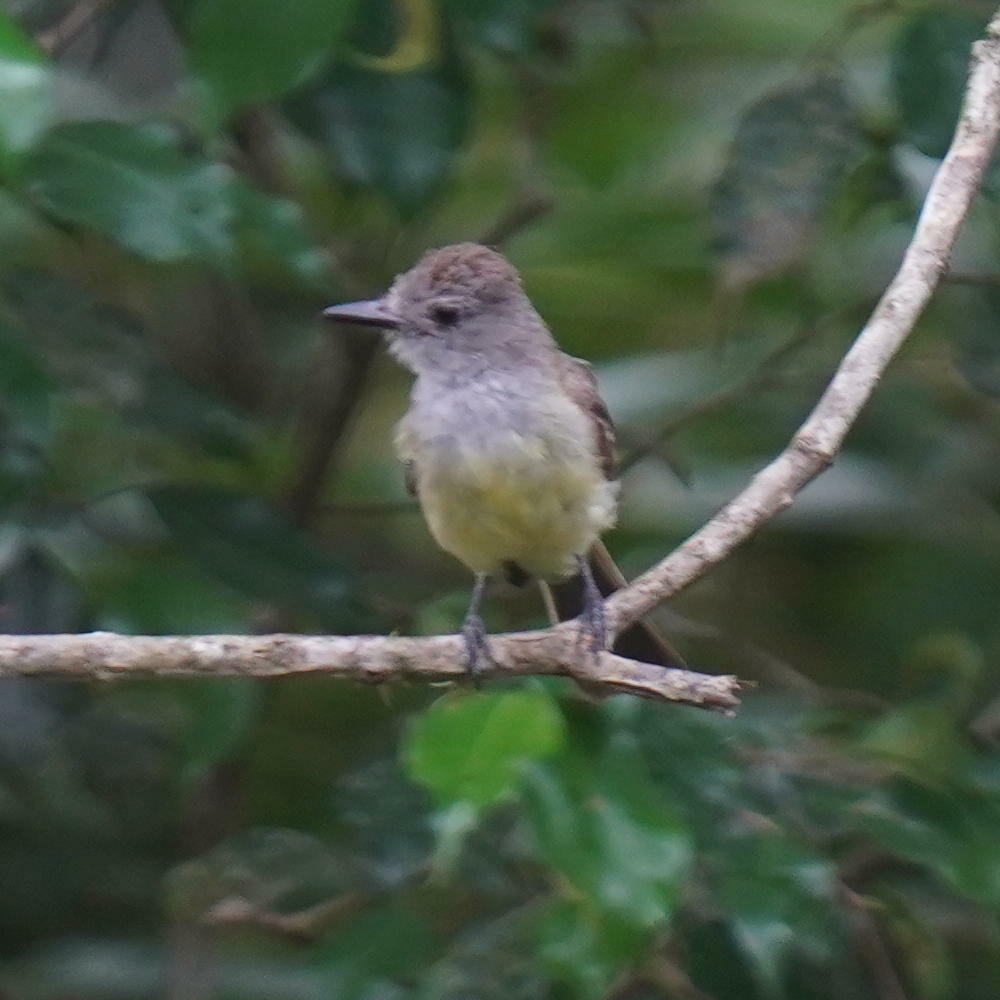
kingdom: Animalia
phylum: Chordata
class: Aves
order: Passeriformes
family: Tyrannidae
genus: Myiarchus
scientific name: Myiarchus panamensis
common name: Panama flycatcher
